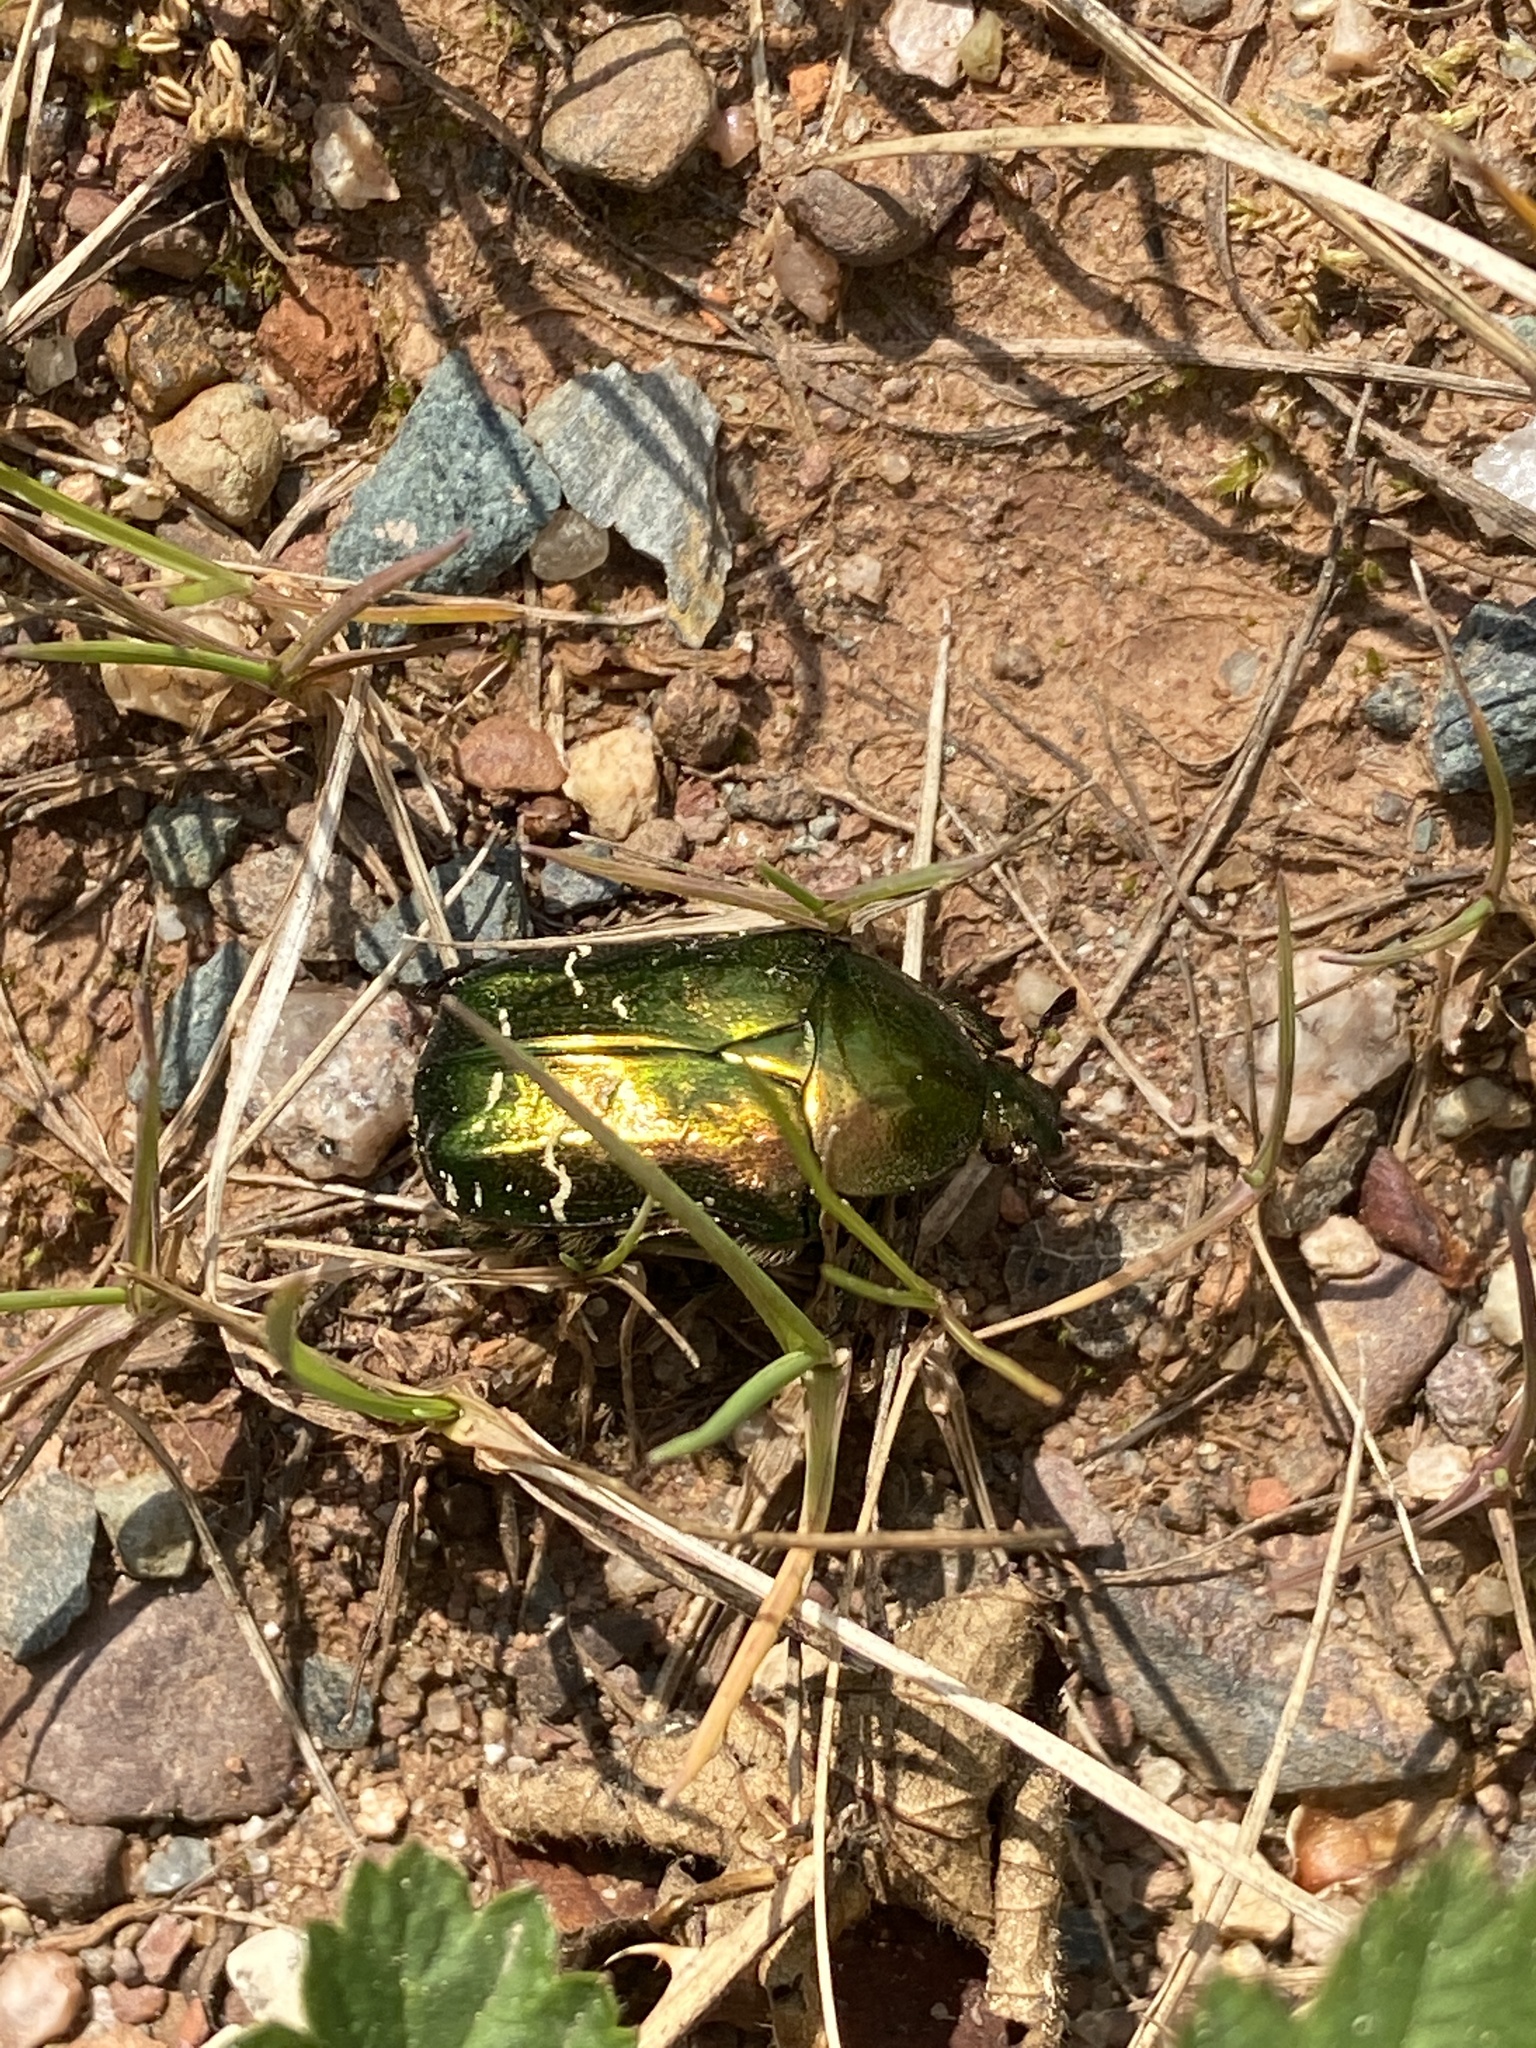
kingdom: Animalia
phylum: Arthropoda
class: Insecta
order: Coleoptera
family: Scarabaeidae
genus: Cetonia
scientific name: Cetonia aurata
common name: Rose chafer
